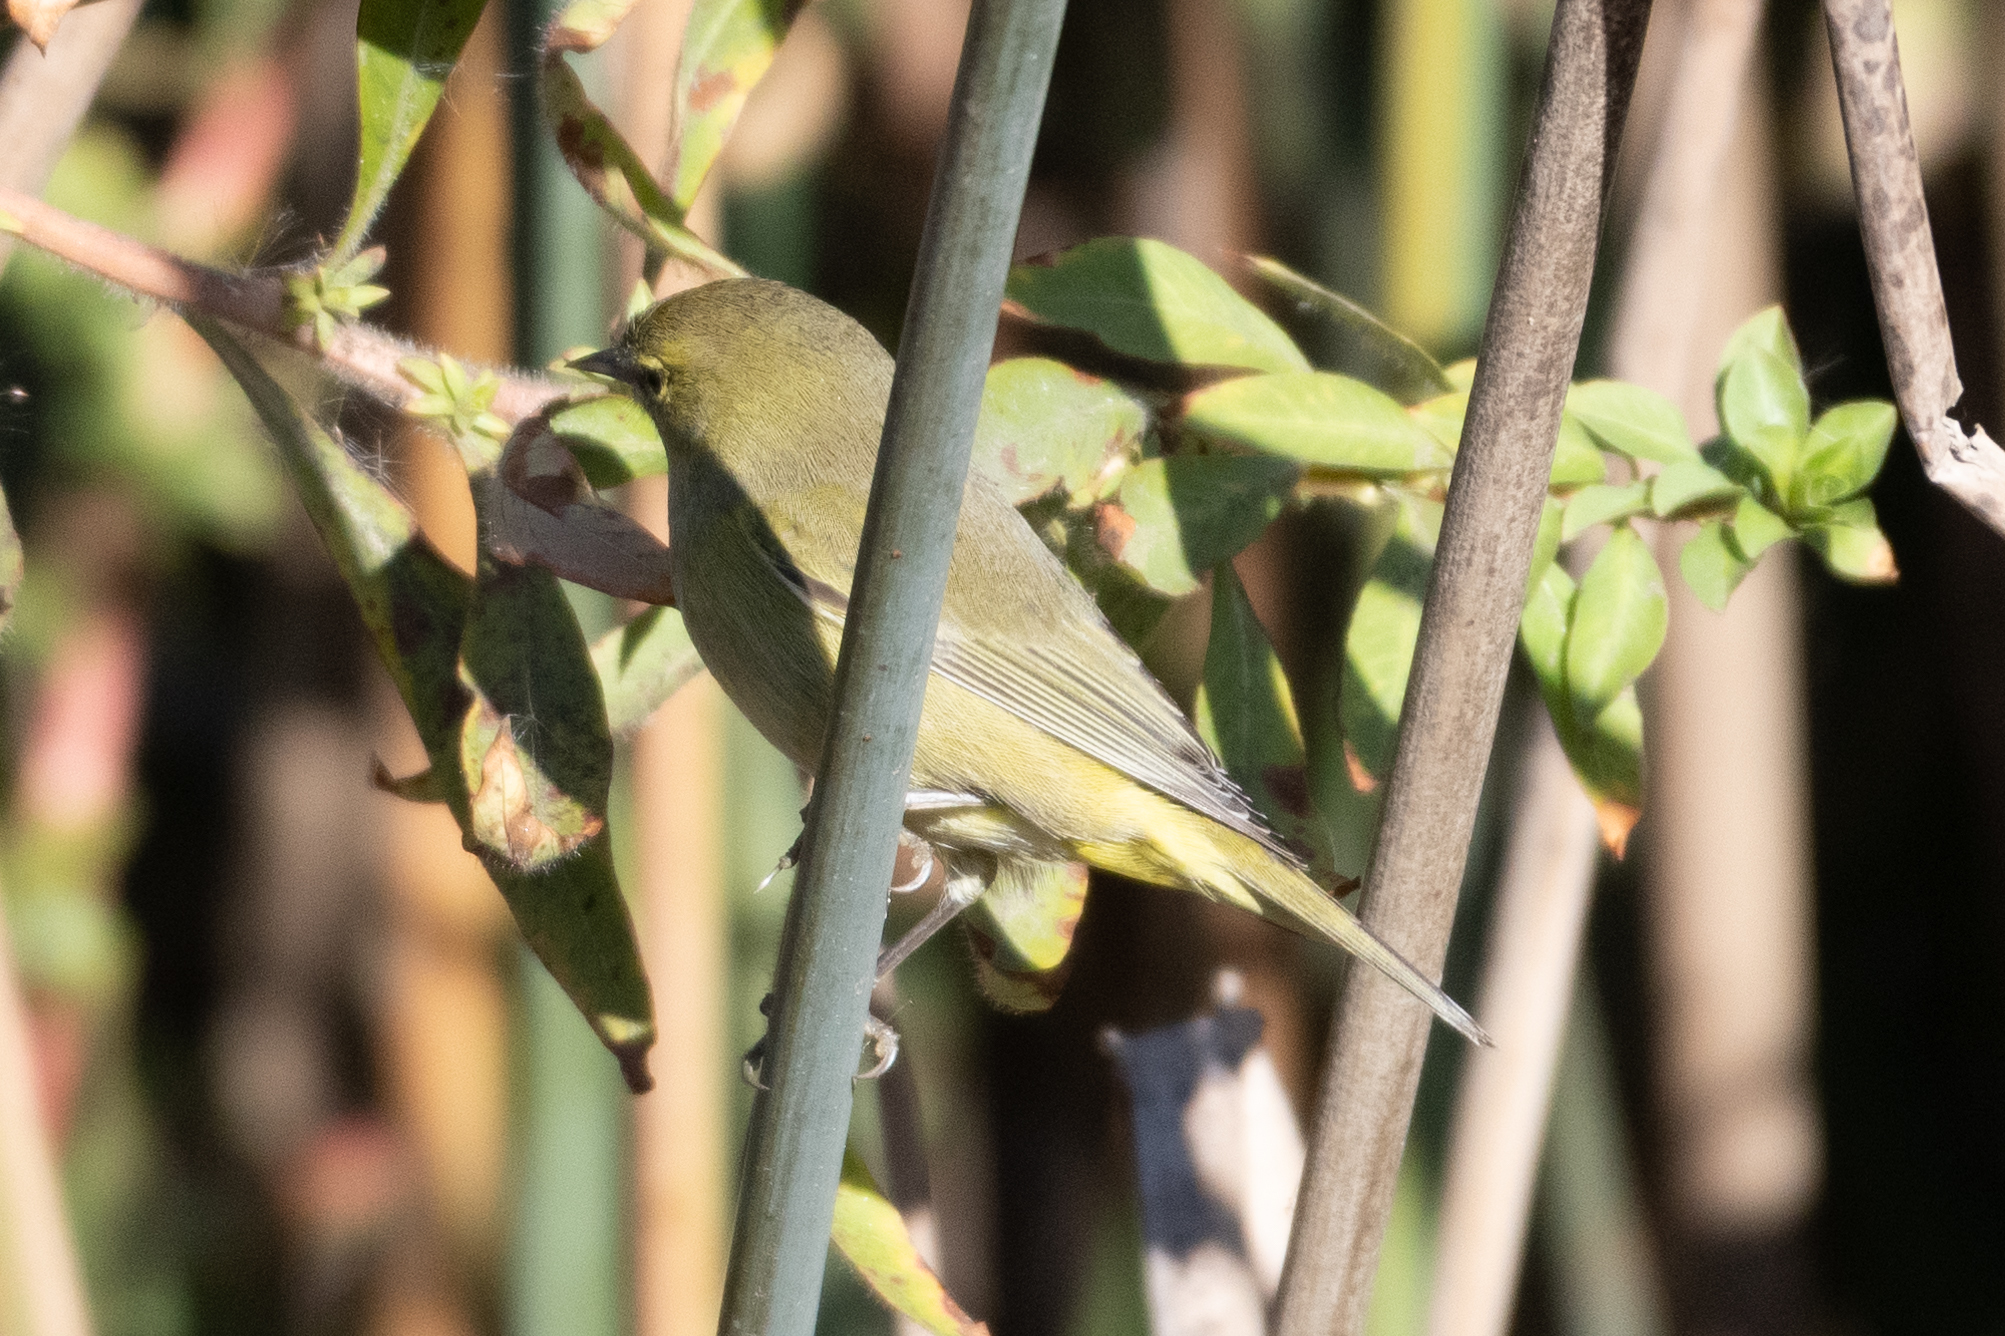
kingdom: Animalia
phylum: Chordata
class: Aves
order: Passeriformes
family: Parulidae
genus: Leiothlypis
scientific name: Leiothlypis celata
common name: Orange-crowned warbler
